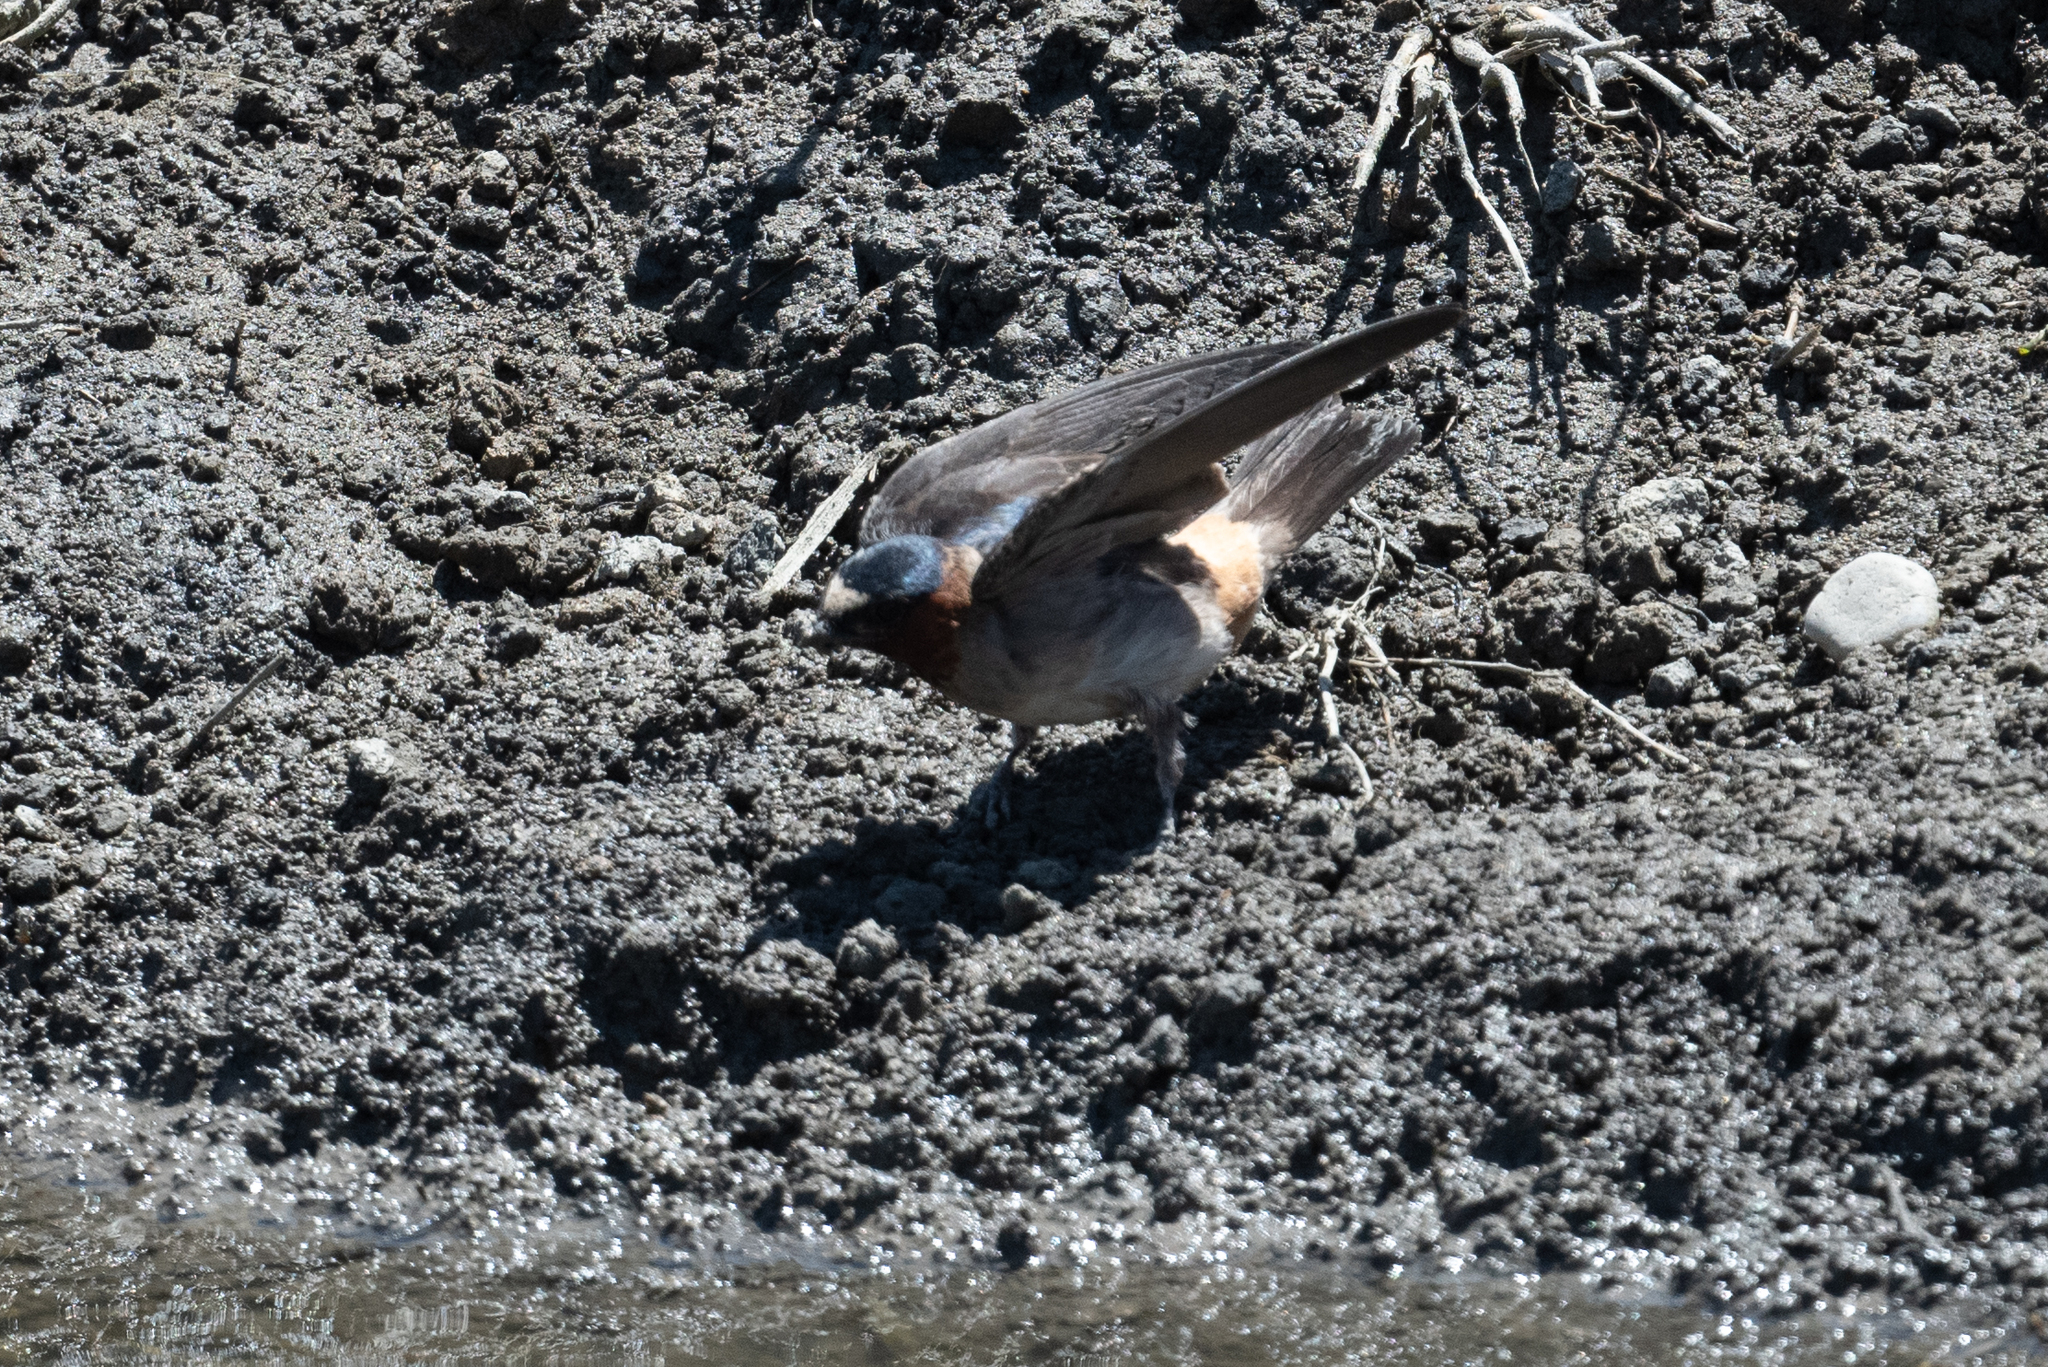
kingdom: Animalia
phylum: Chordata
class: Aves
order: Passeriformes
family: Hirundinidae
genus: Petrochelidon
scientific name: Petrochelidon pyrrhonota
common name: American cliff swallow
